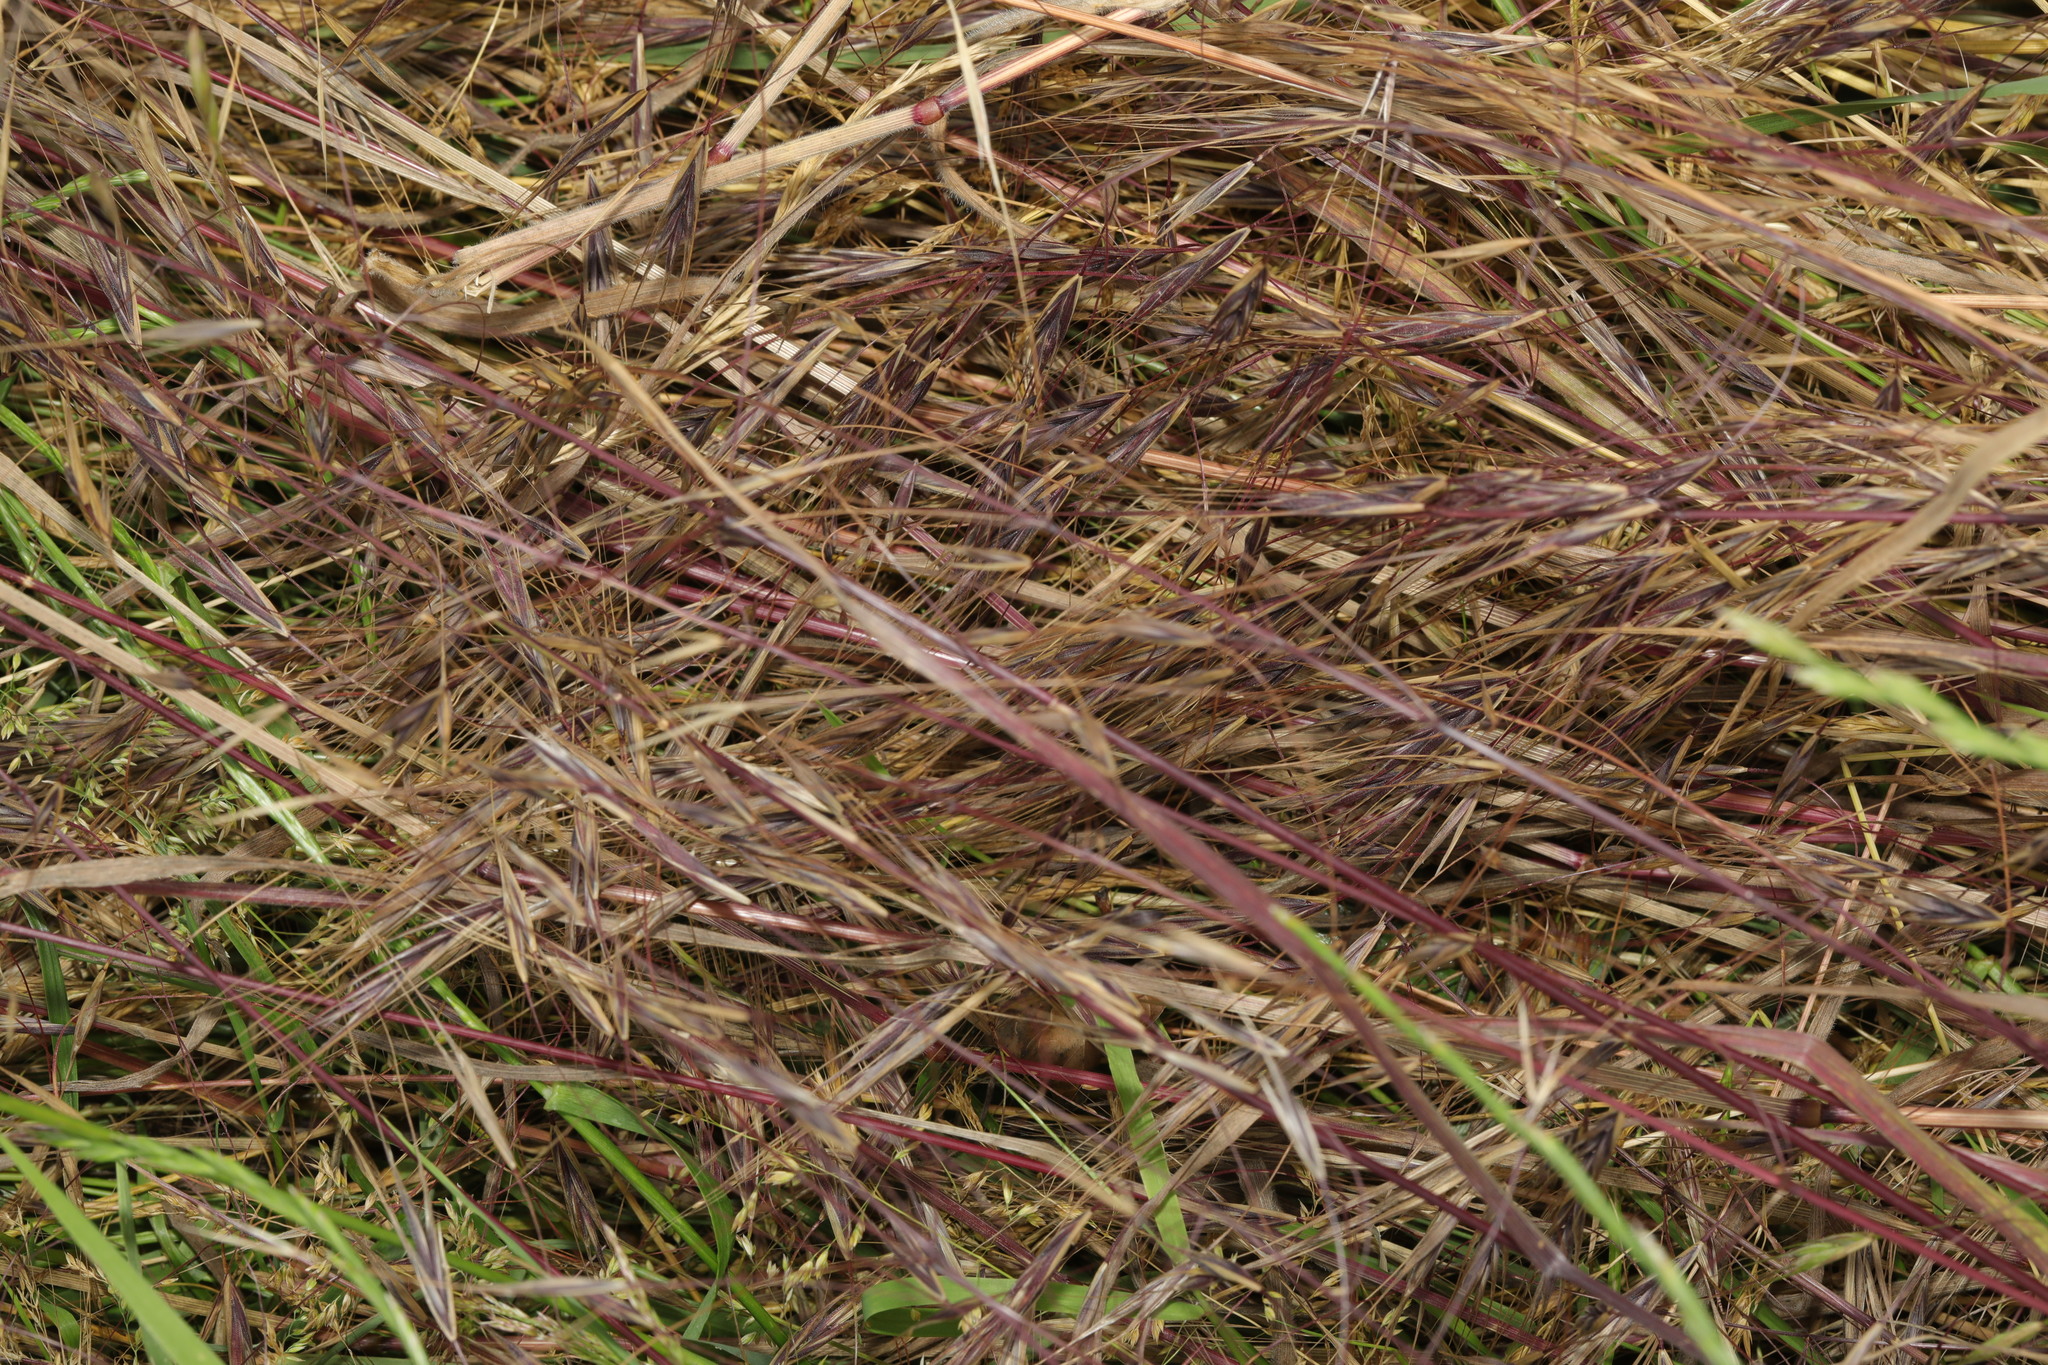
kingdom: Plantae
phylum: Tracheophyta
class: Liliopsida
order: Poales
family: Poaceae
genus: Bromus
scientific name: Bromus sterilis
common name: Poverty brome
